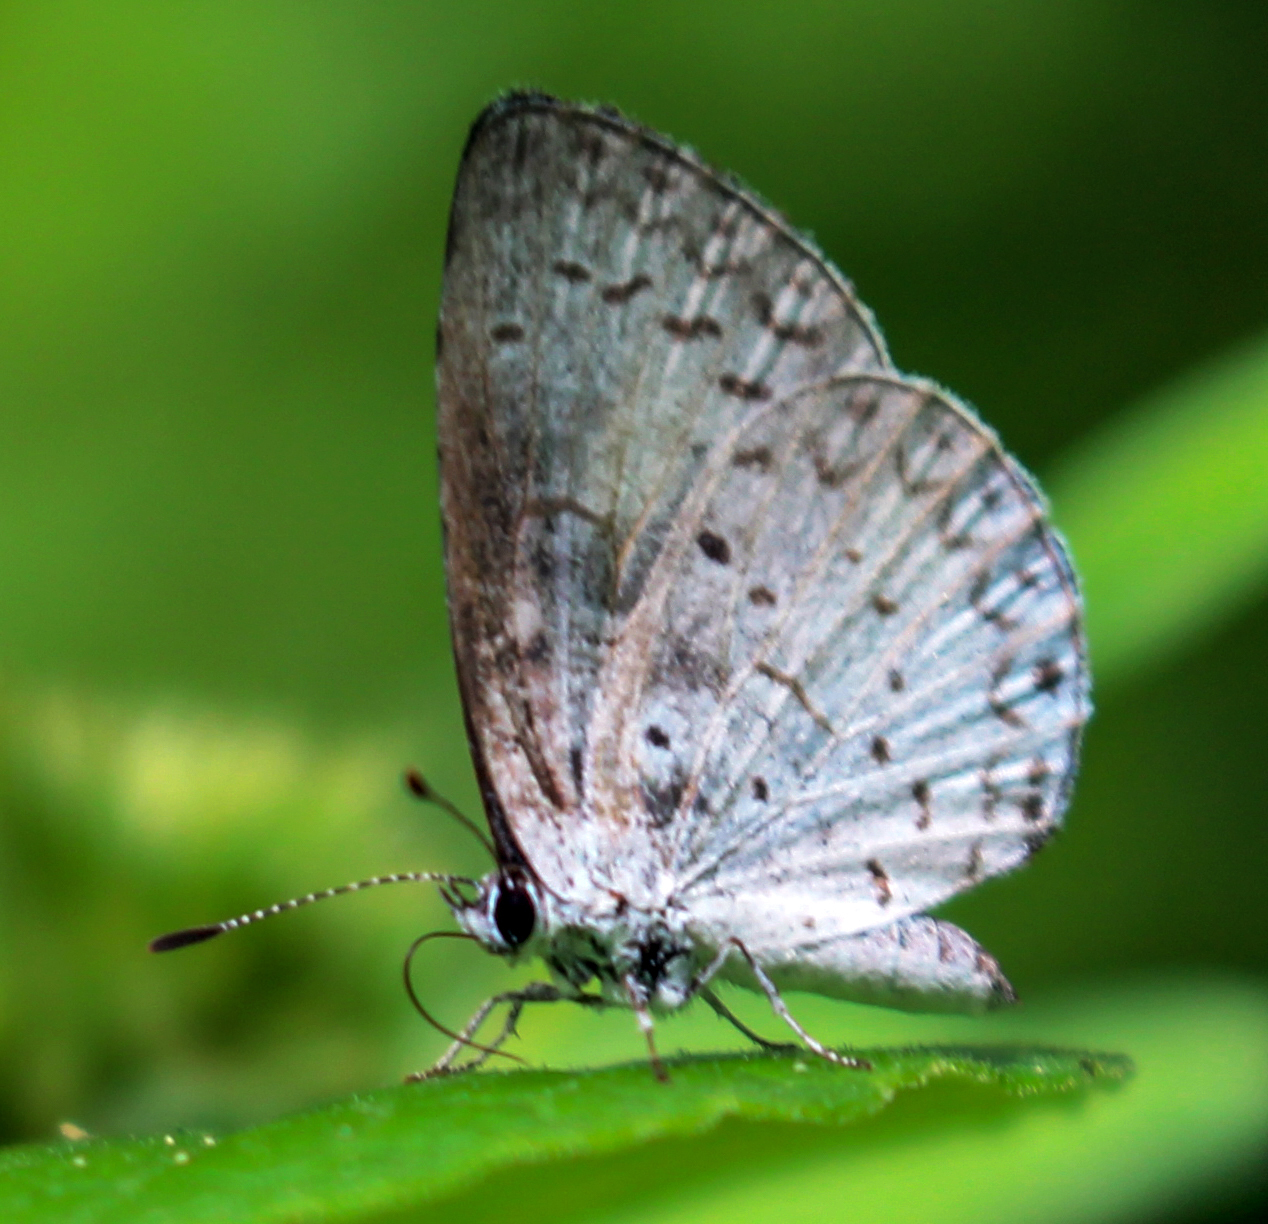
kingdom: Animalia
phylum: Arthropoda
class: Insecta
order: Lepidoptera
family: Lycaenidae
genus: Cyaniris
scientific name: Cyaniris neglecta
